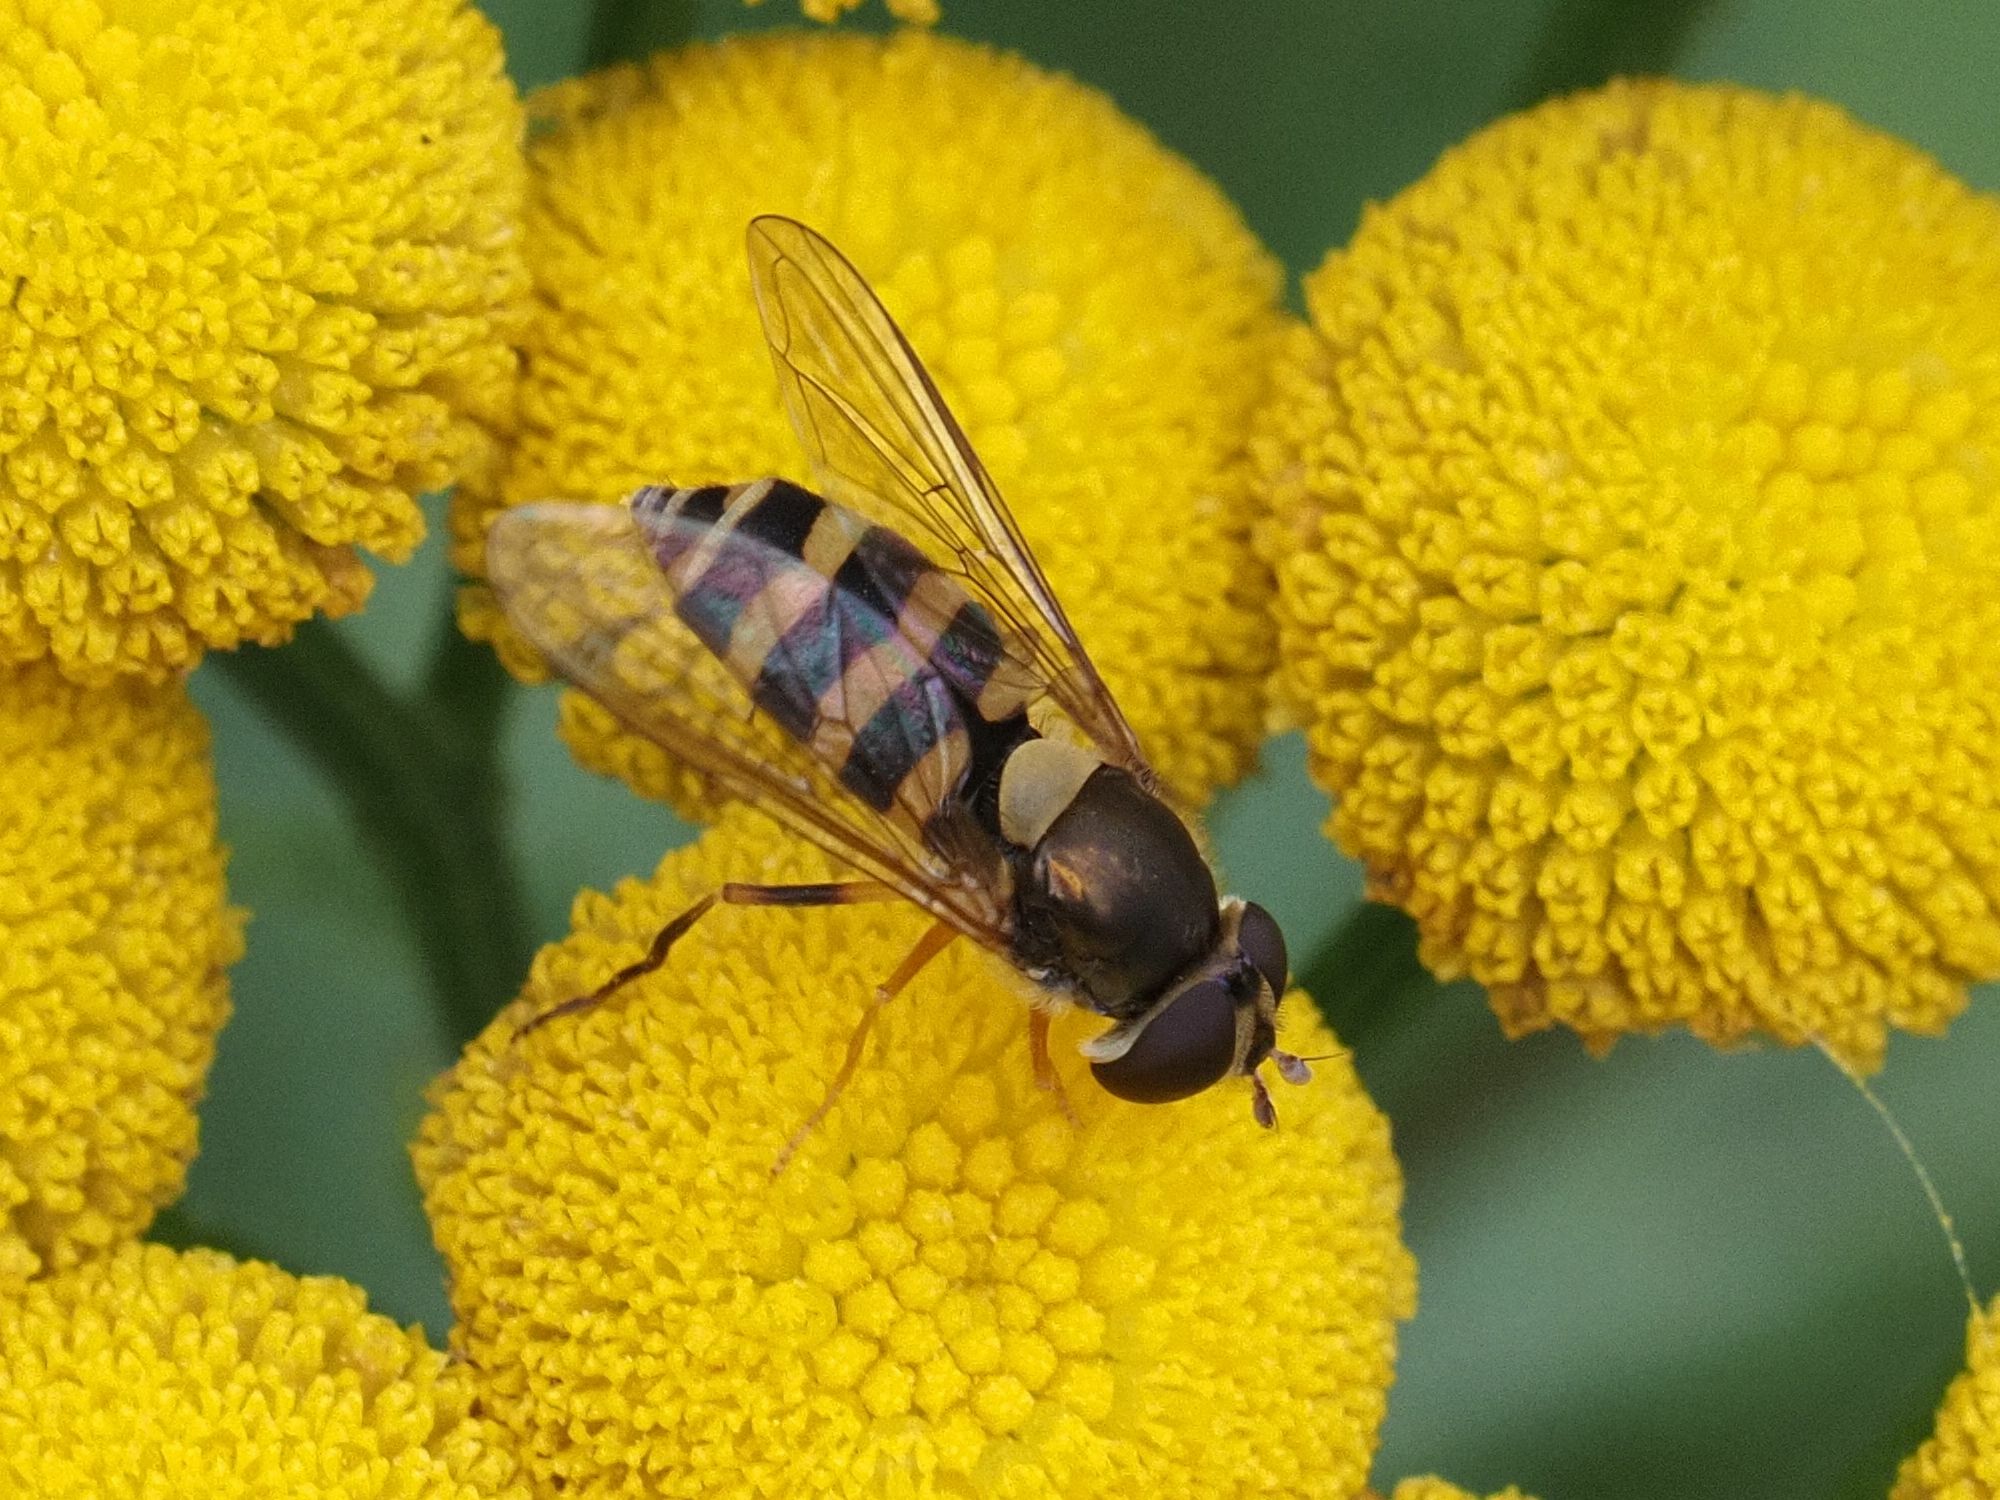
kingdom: Animalia
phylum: Arthropoda
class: Insecta
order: Diptera
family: Syrphidae
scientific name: Syrphidae
